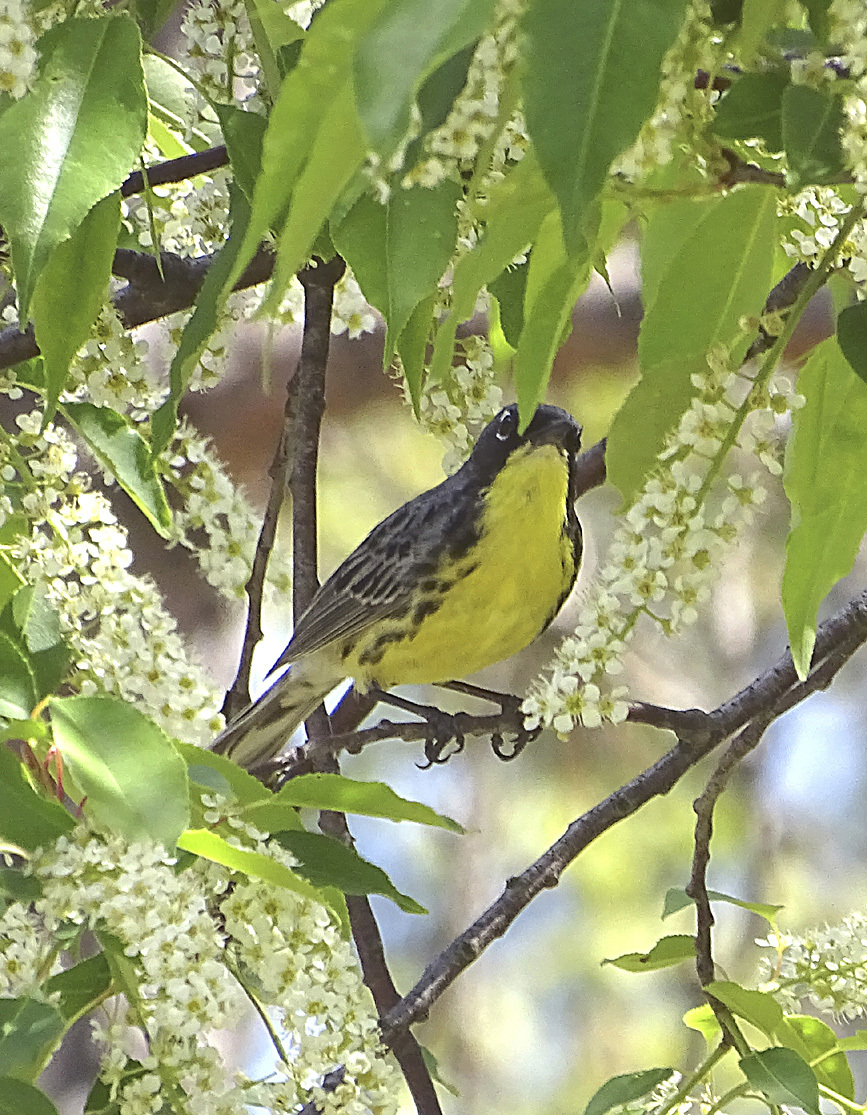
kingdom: Animalia
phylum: Chordata
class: Aves
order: Passeriformes
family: Parulidae
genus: Setophaga
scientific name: Setophaga kirtlandii
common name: Kirtland's warbler
